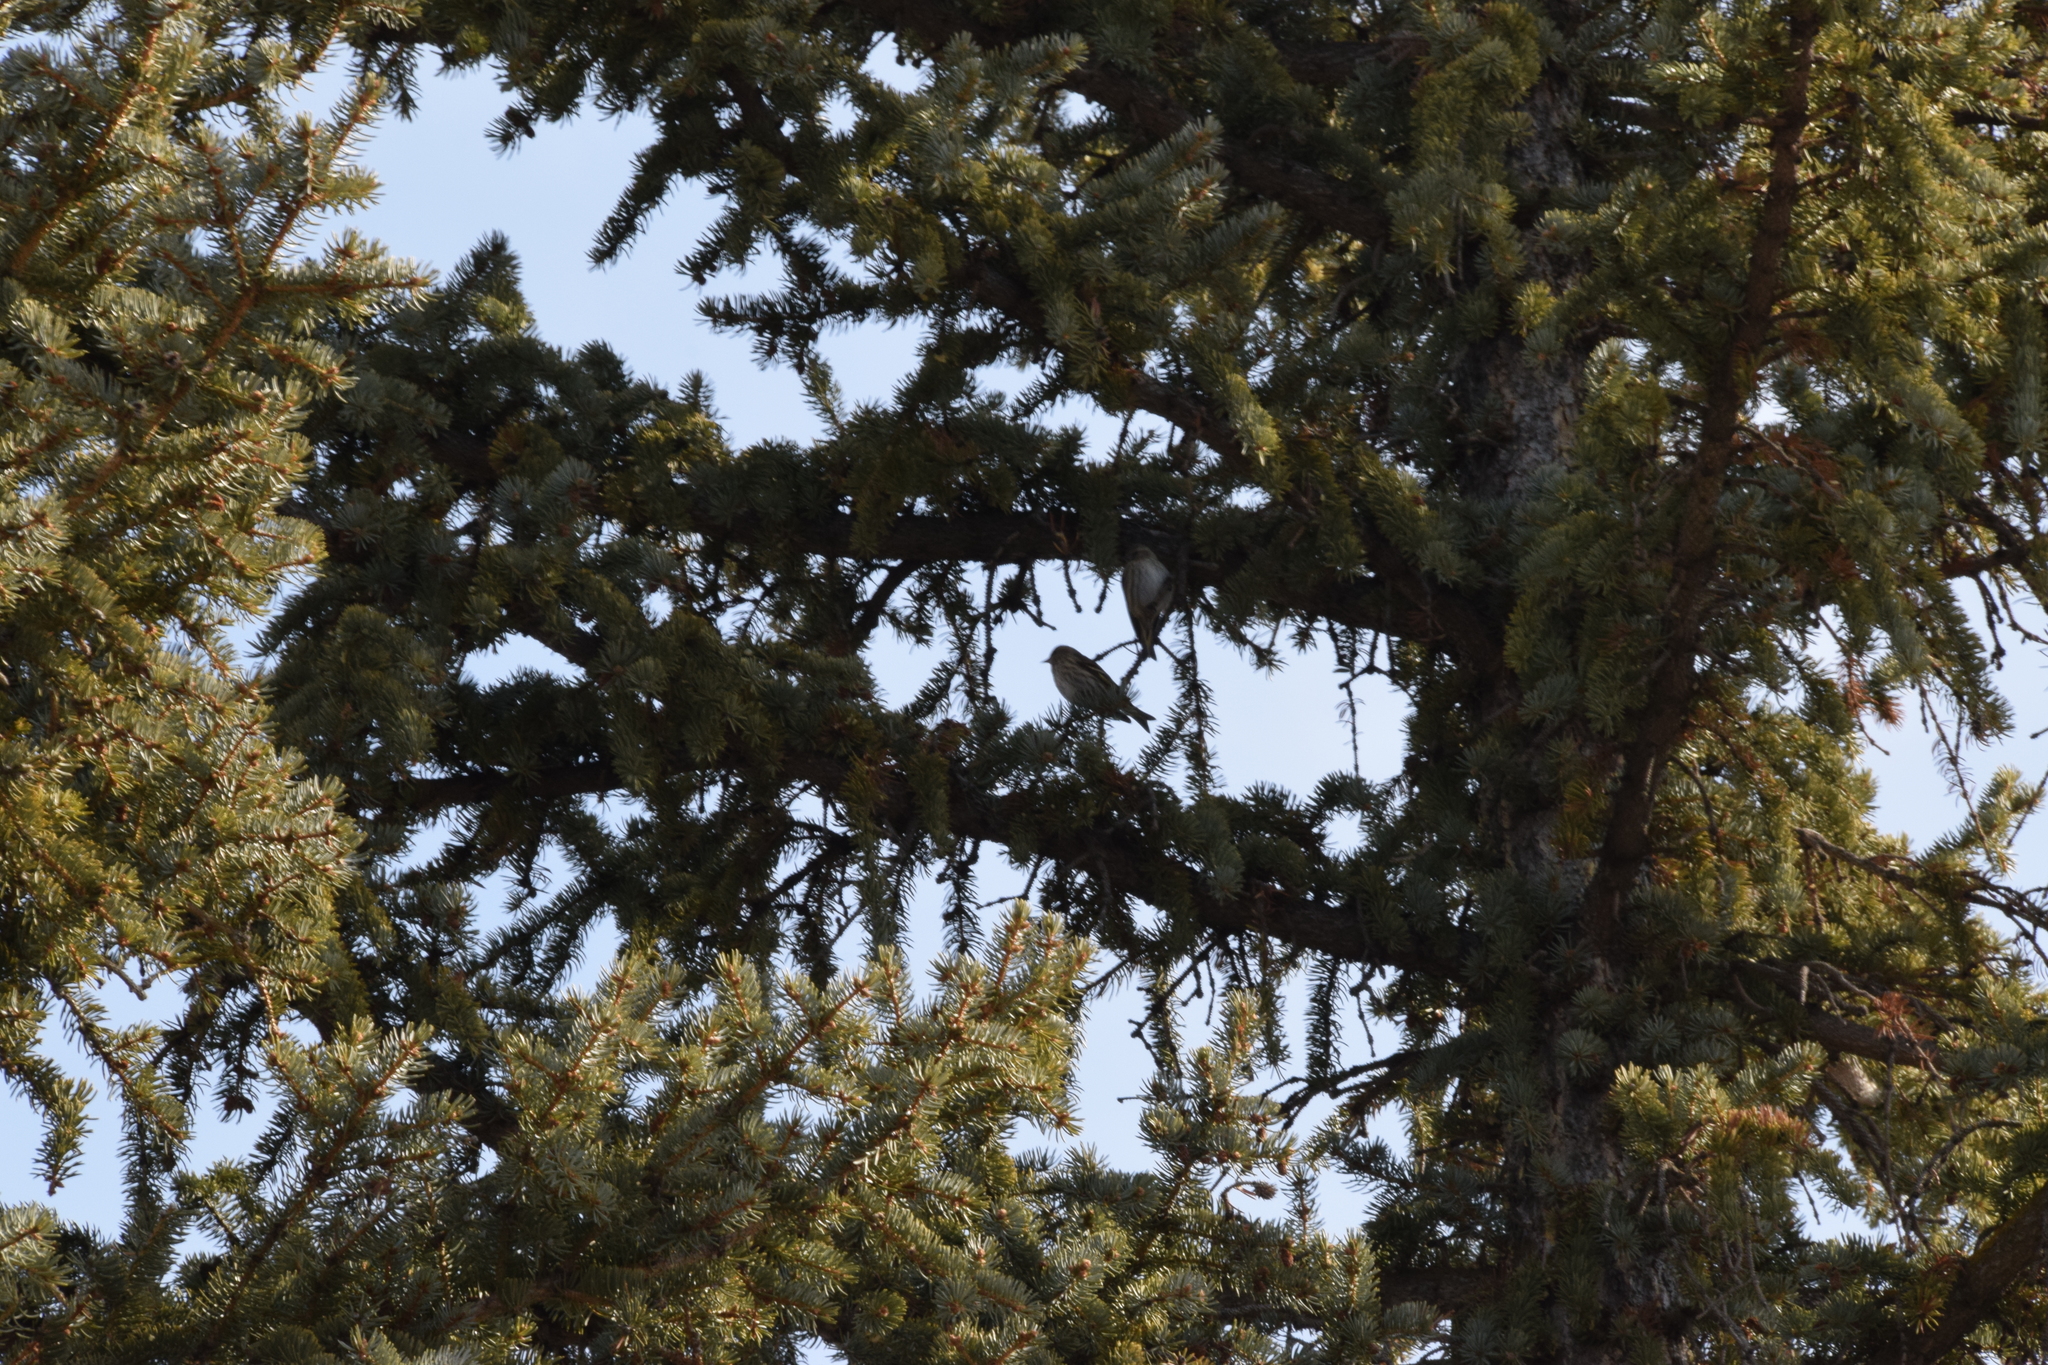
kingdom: Animalia
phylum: Chordata
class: Aves
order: Passeriformes
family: Fringillidae
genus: Spinus
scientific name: Spinus pinus
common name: Pine siskin
